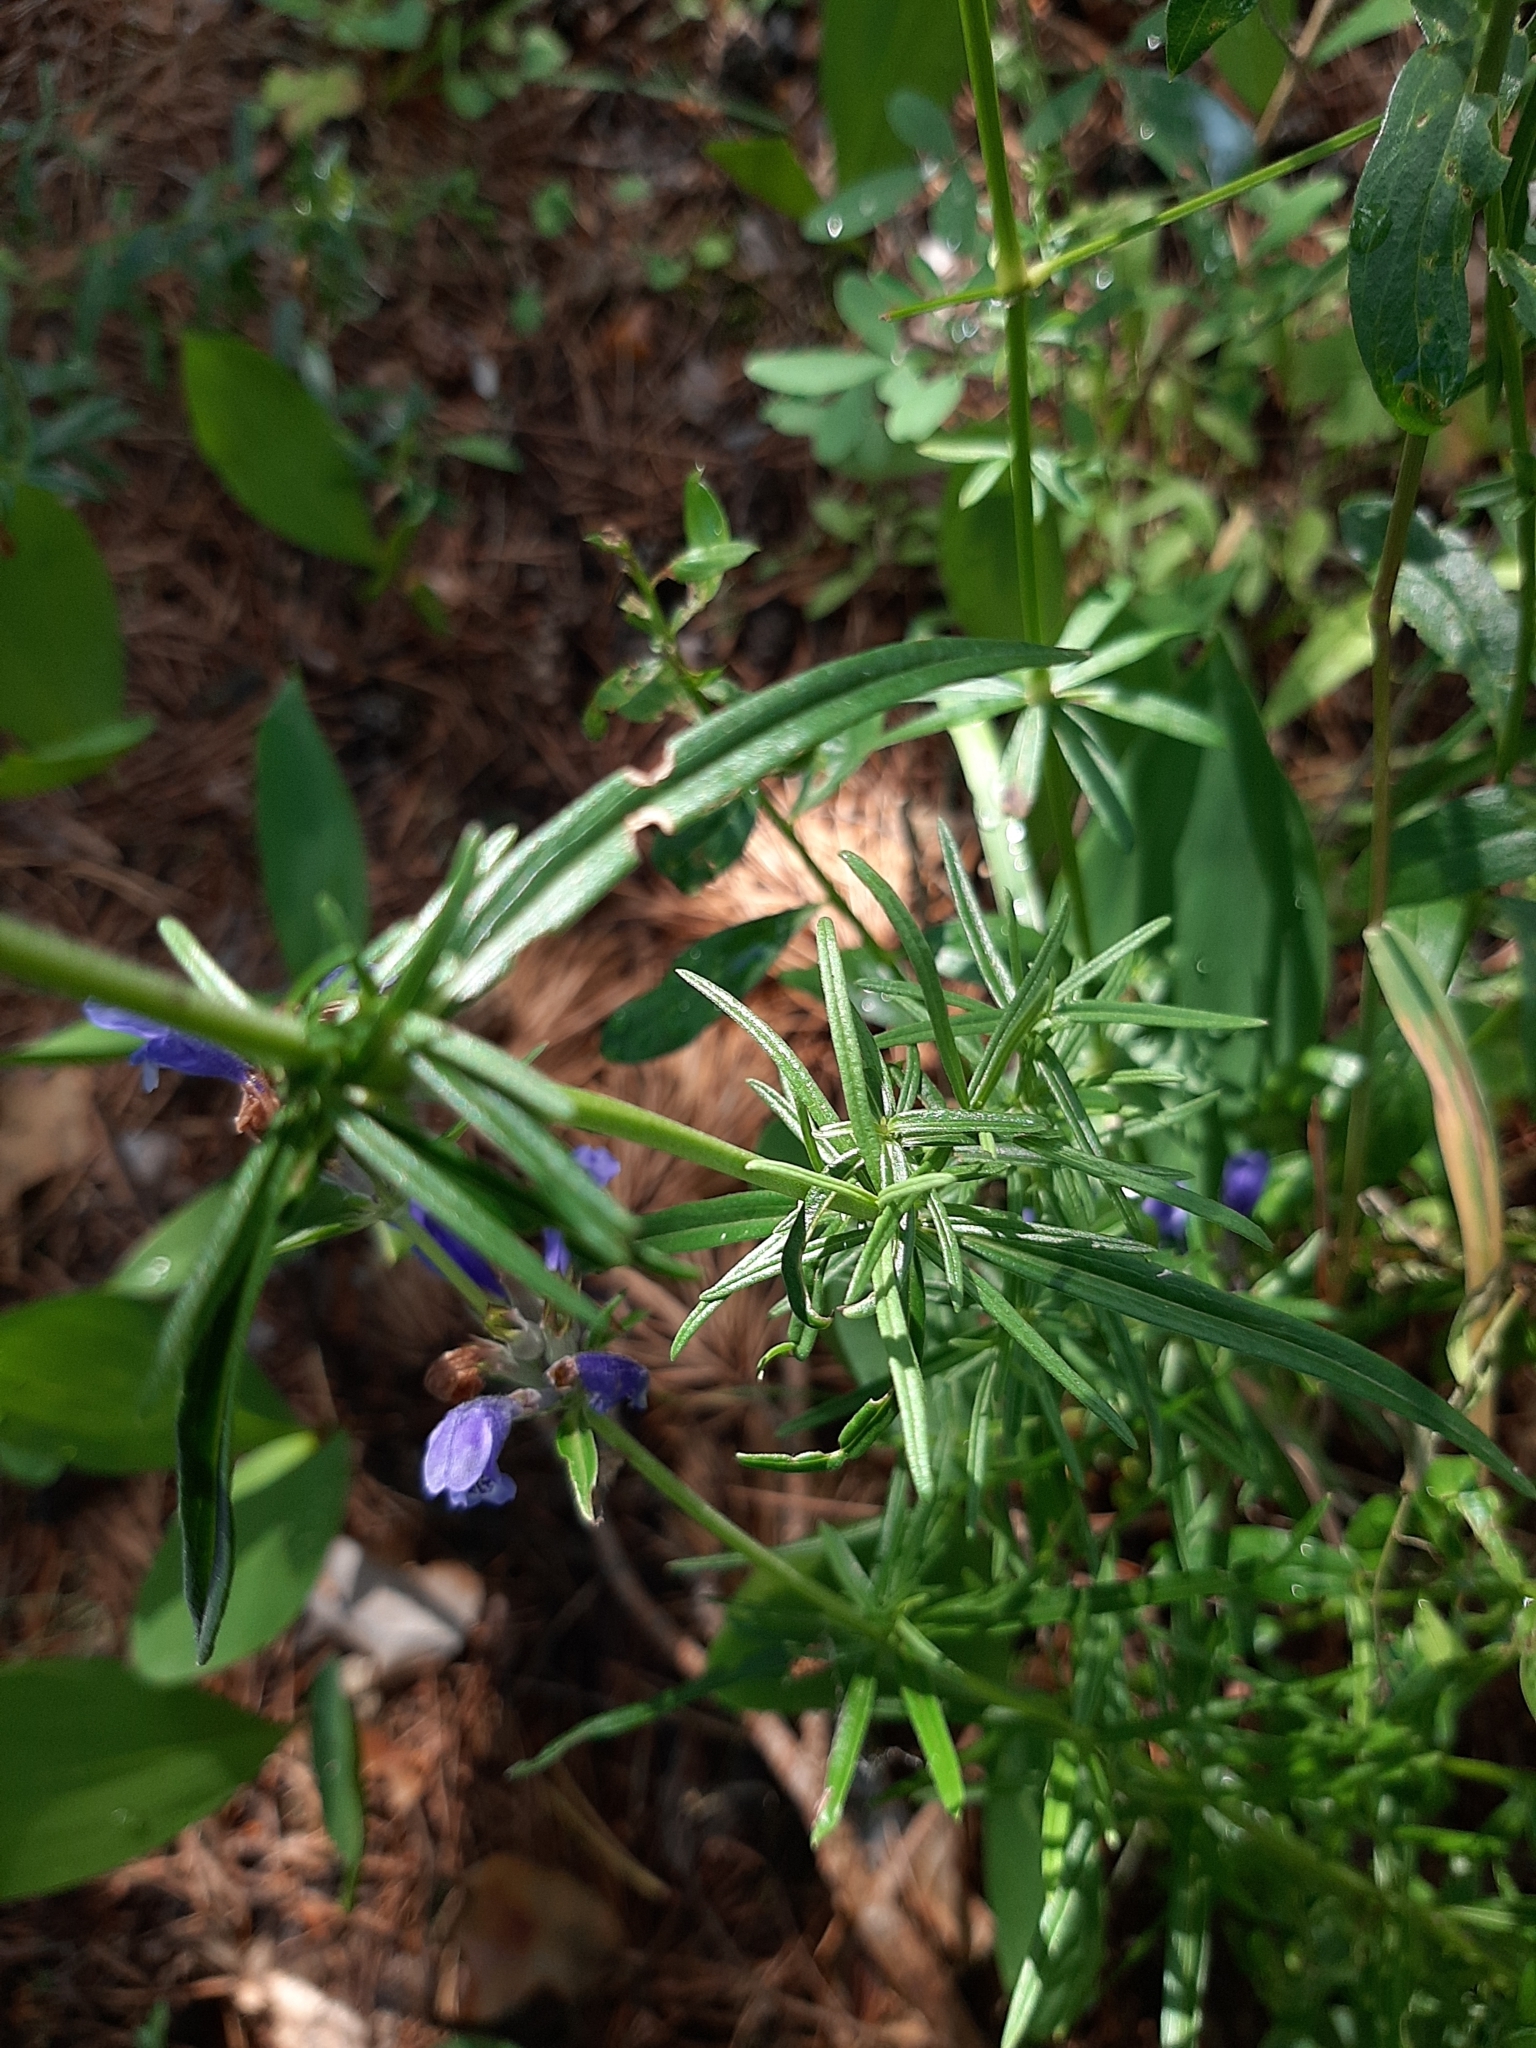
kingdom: Plantae
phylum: Tracheophyta
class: Magnoliopsida
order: Lamiales
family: Lamiaceae
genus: Dracocephalum
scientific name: Dracocephalum ruyschiana
